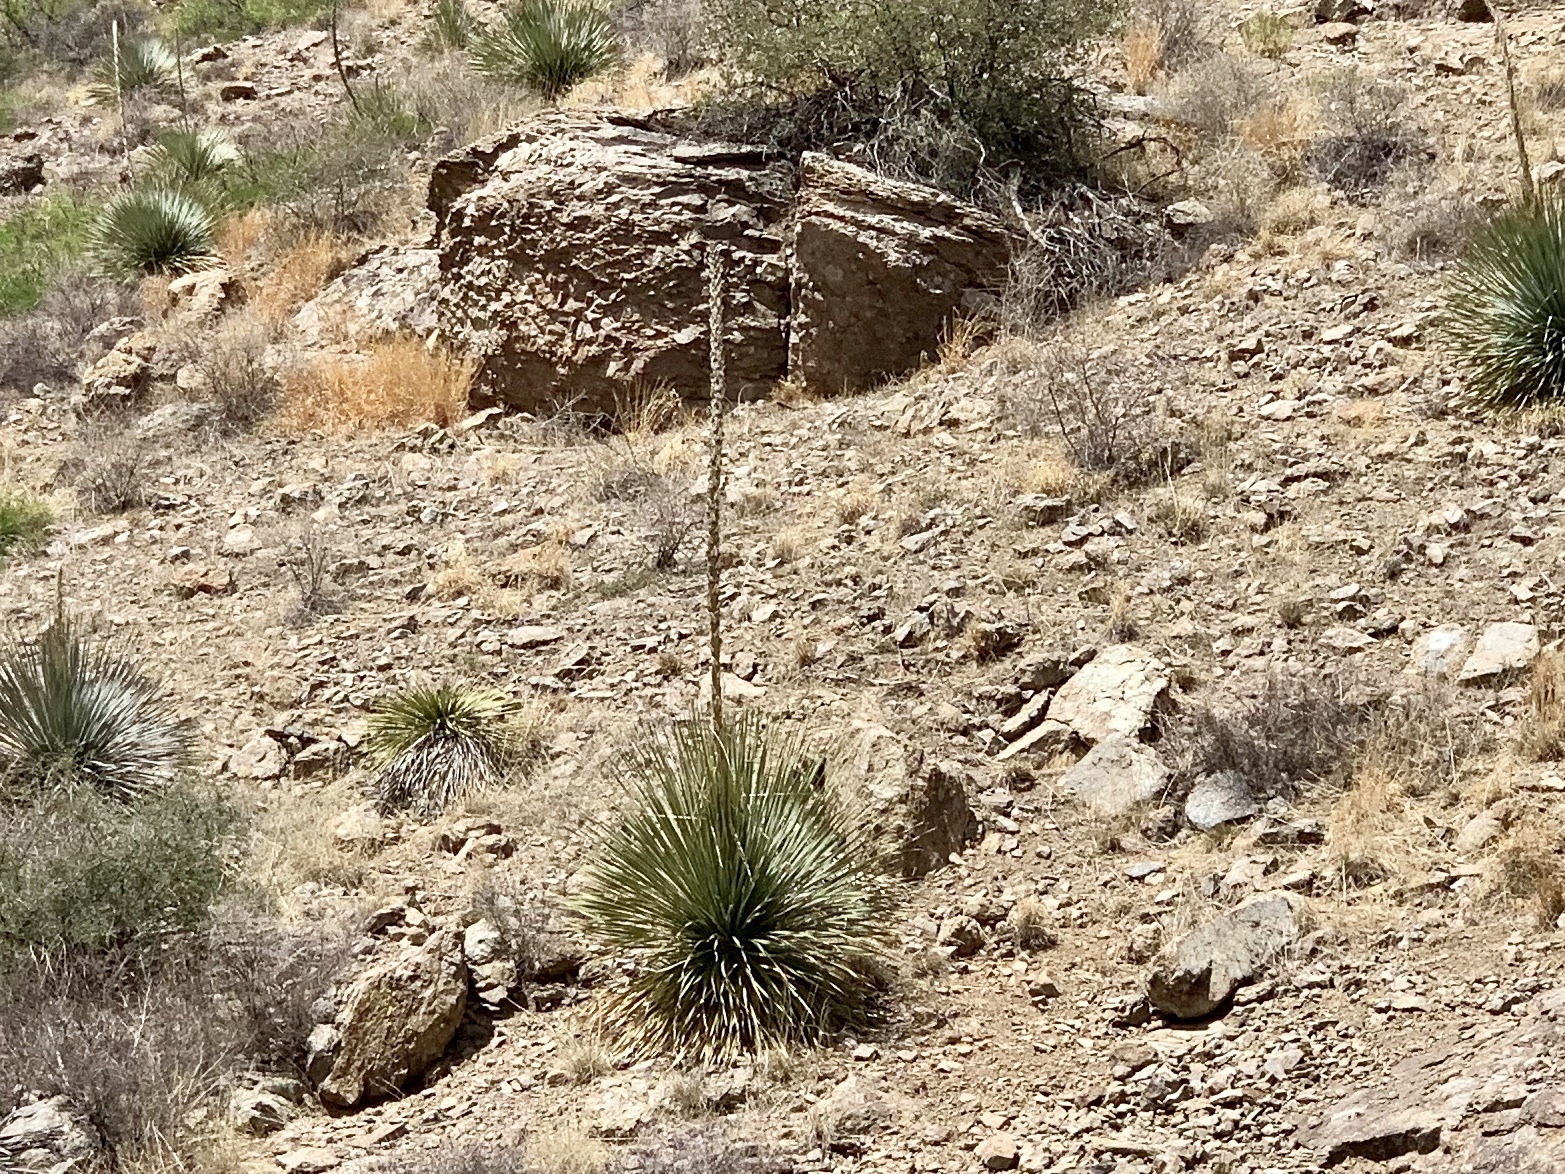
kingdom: Plantae
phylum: Tracheophyta
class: Liliopsida
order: Asparagales
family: Asparagaceae
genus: Yucca
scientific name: Yucca elata
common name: Palmella
